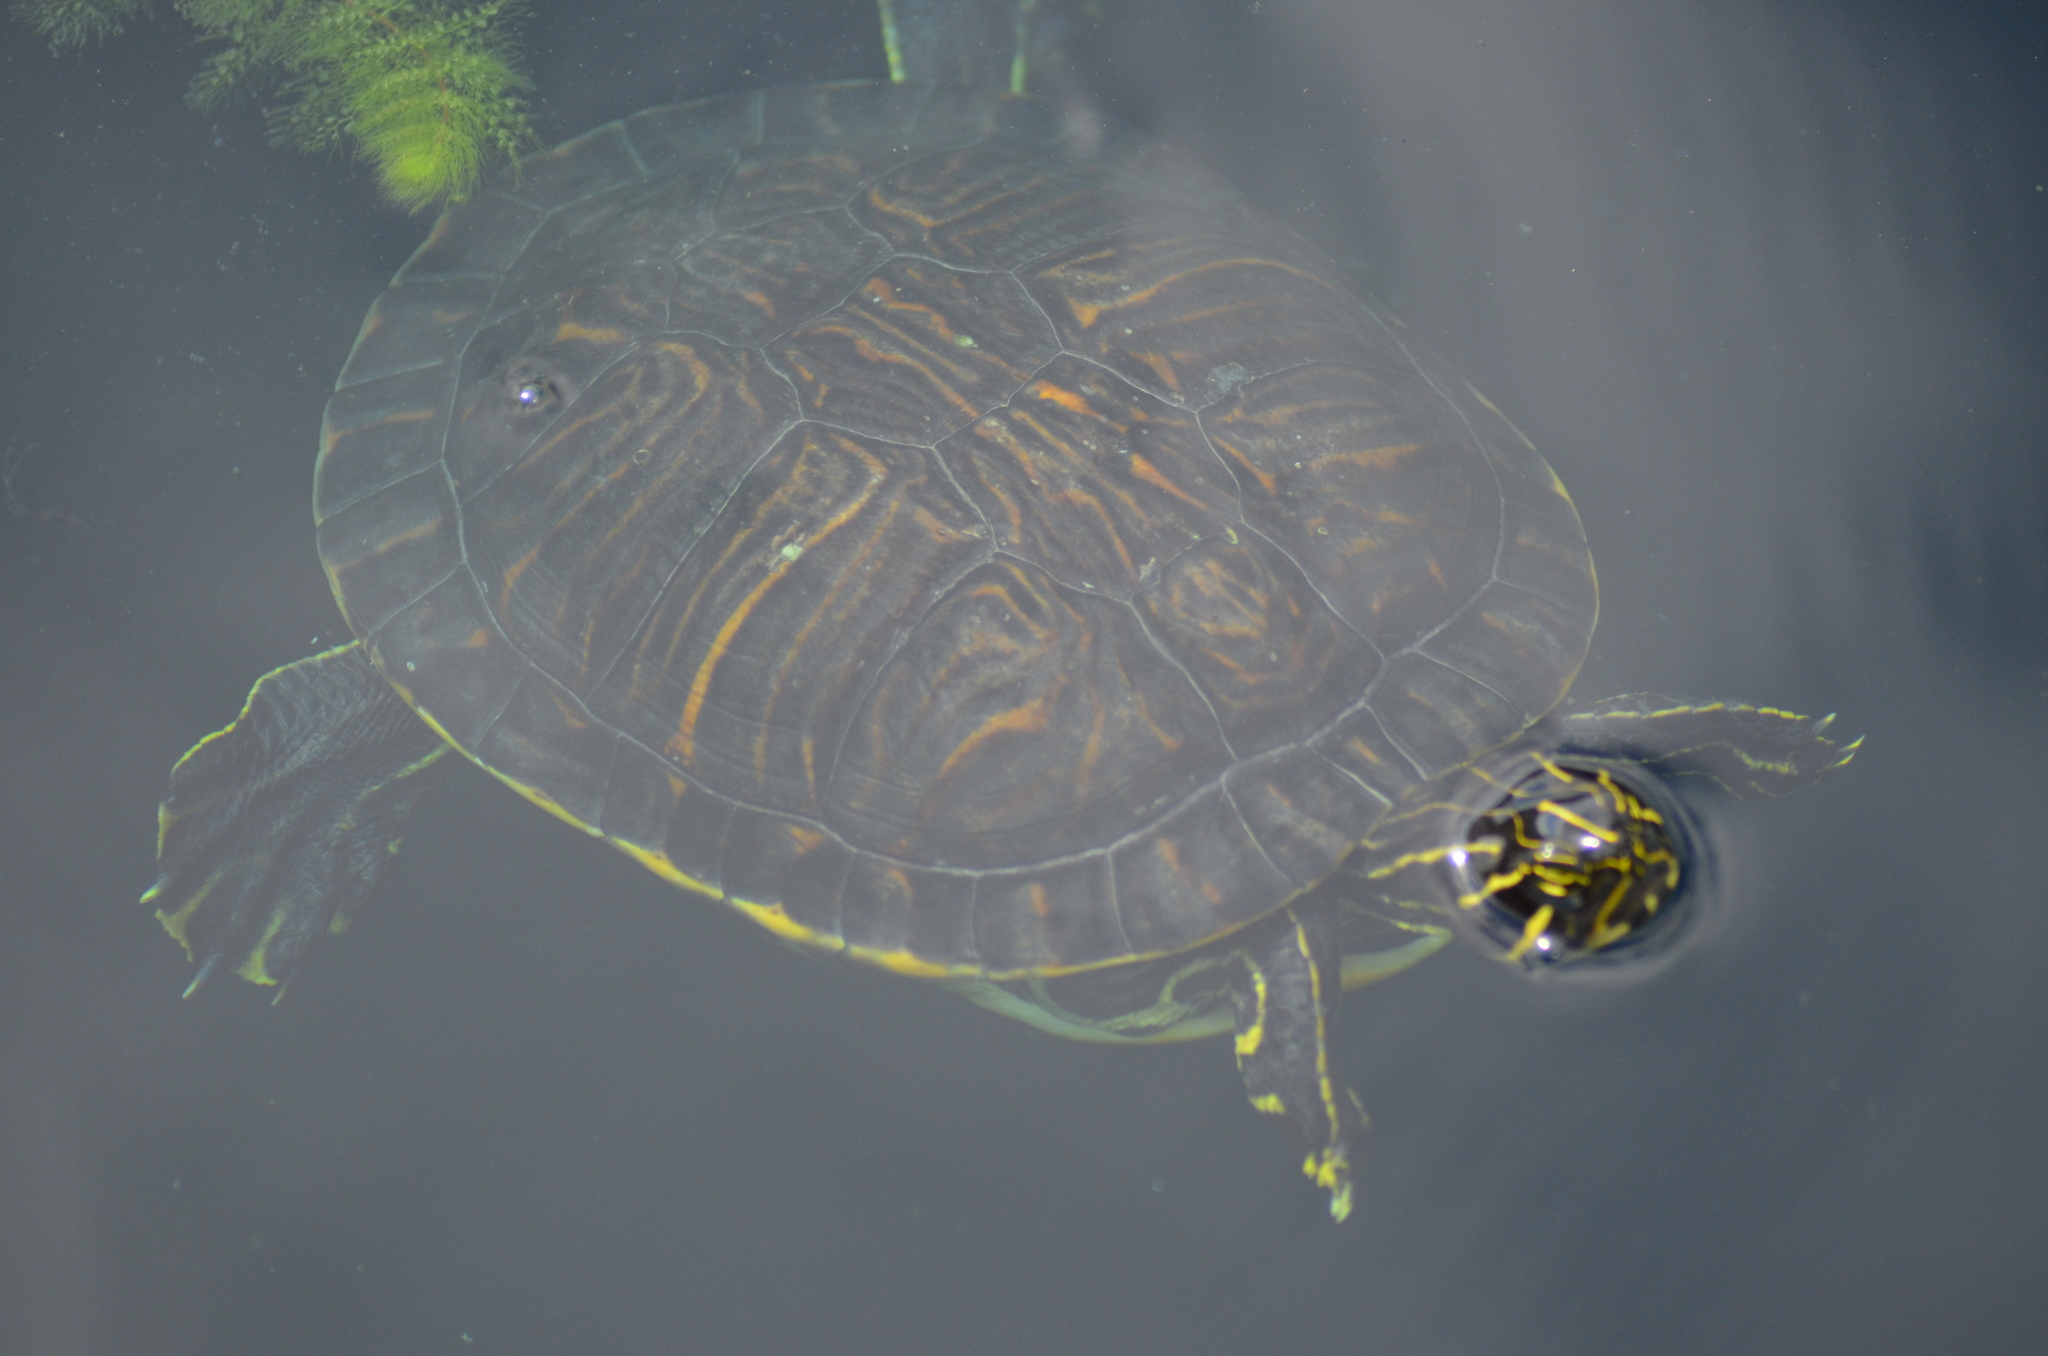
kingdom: Animalia
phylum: Chordata
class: Testudines
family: Emydidae
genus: Pseudemys
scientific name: Pseudemys concinna
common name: Eastern river cooter
